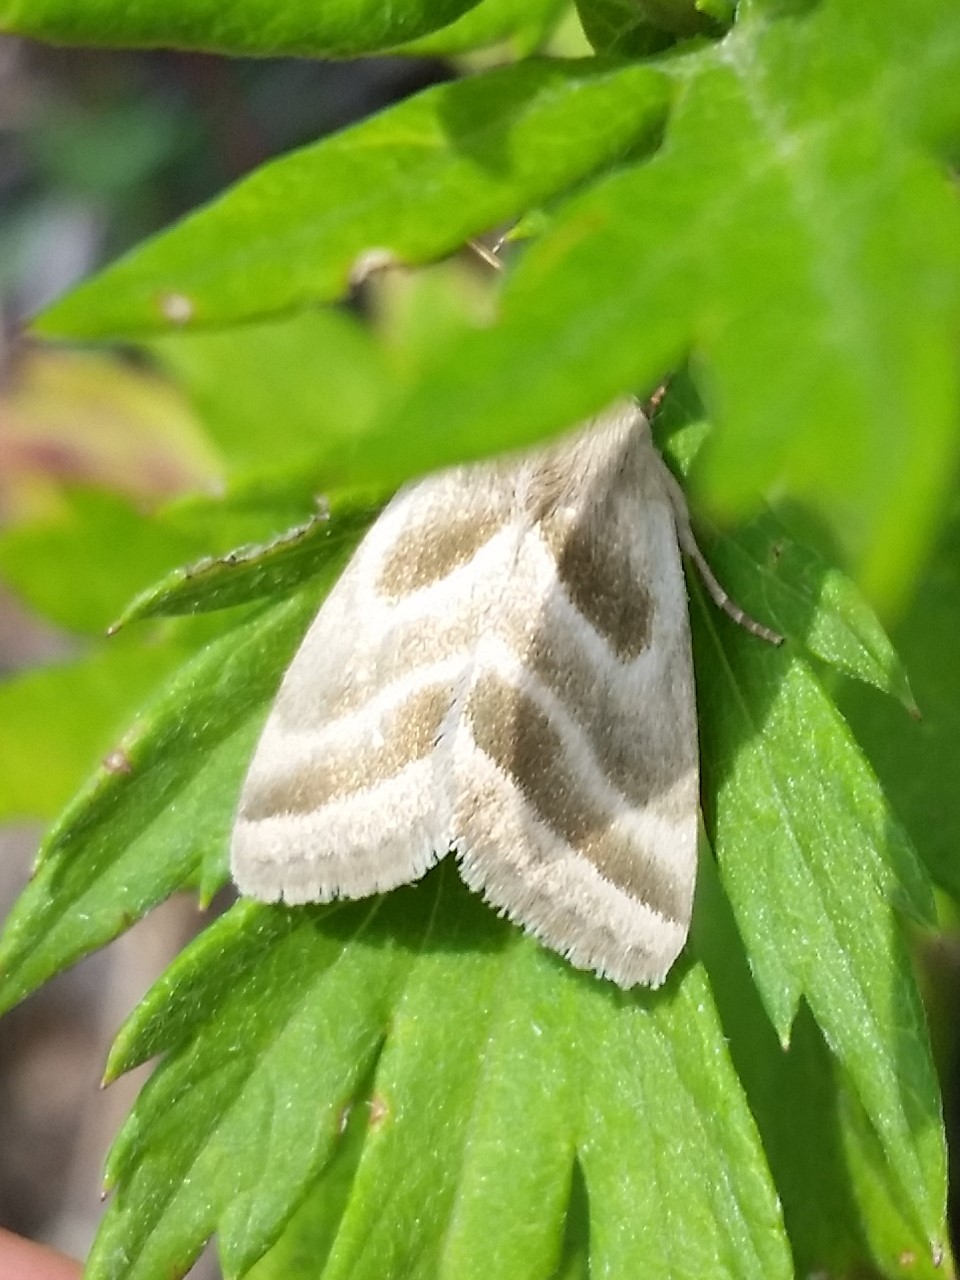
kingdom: Animalia
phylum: Arthropoda
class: Insecta
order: Lepidoptera
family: Noctuidae
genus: Schinia
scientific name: Schinia trifascia
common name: Three-lined flower moth
